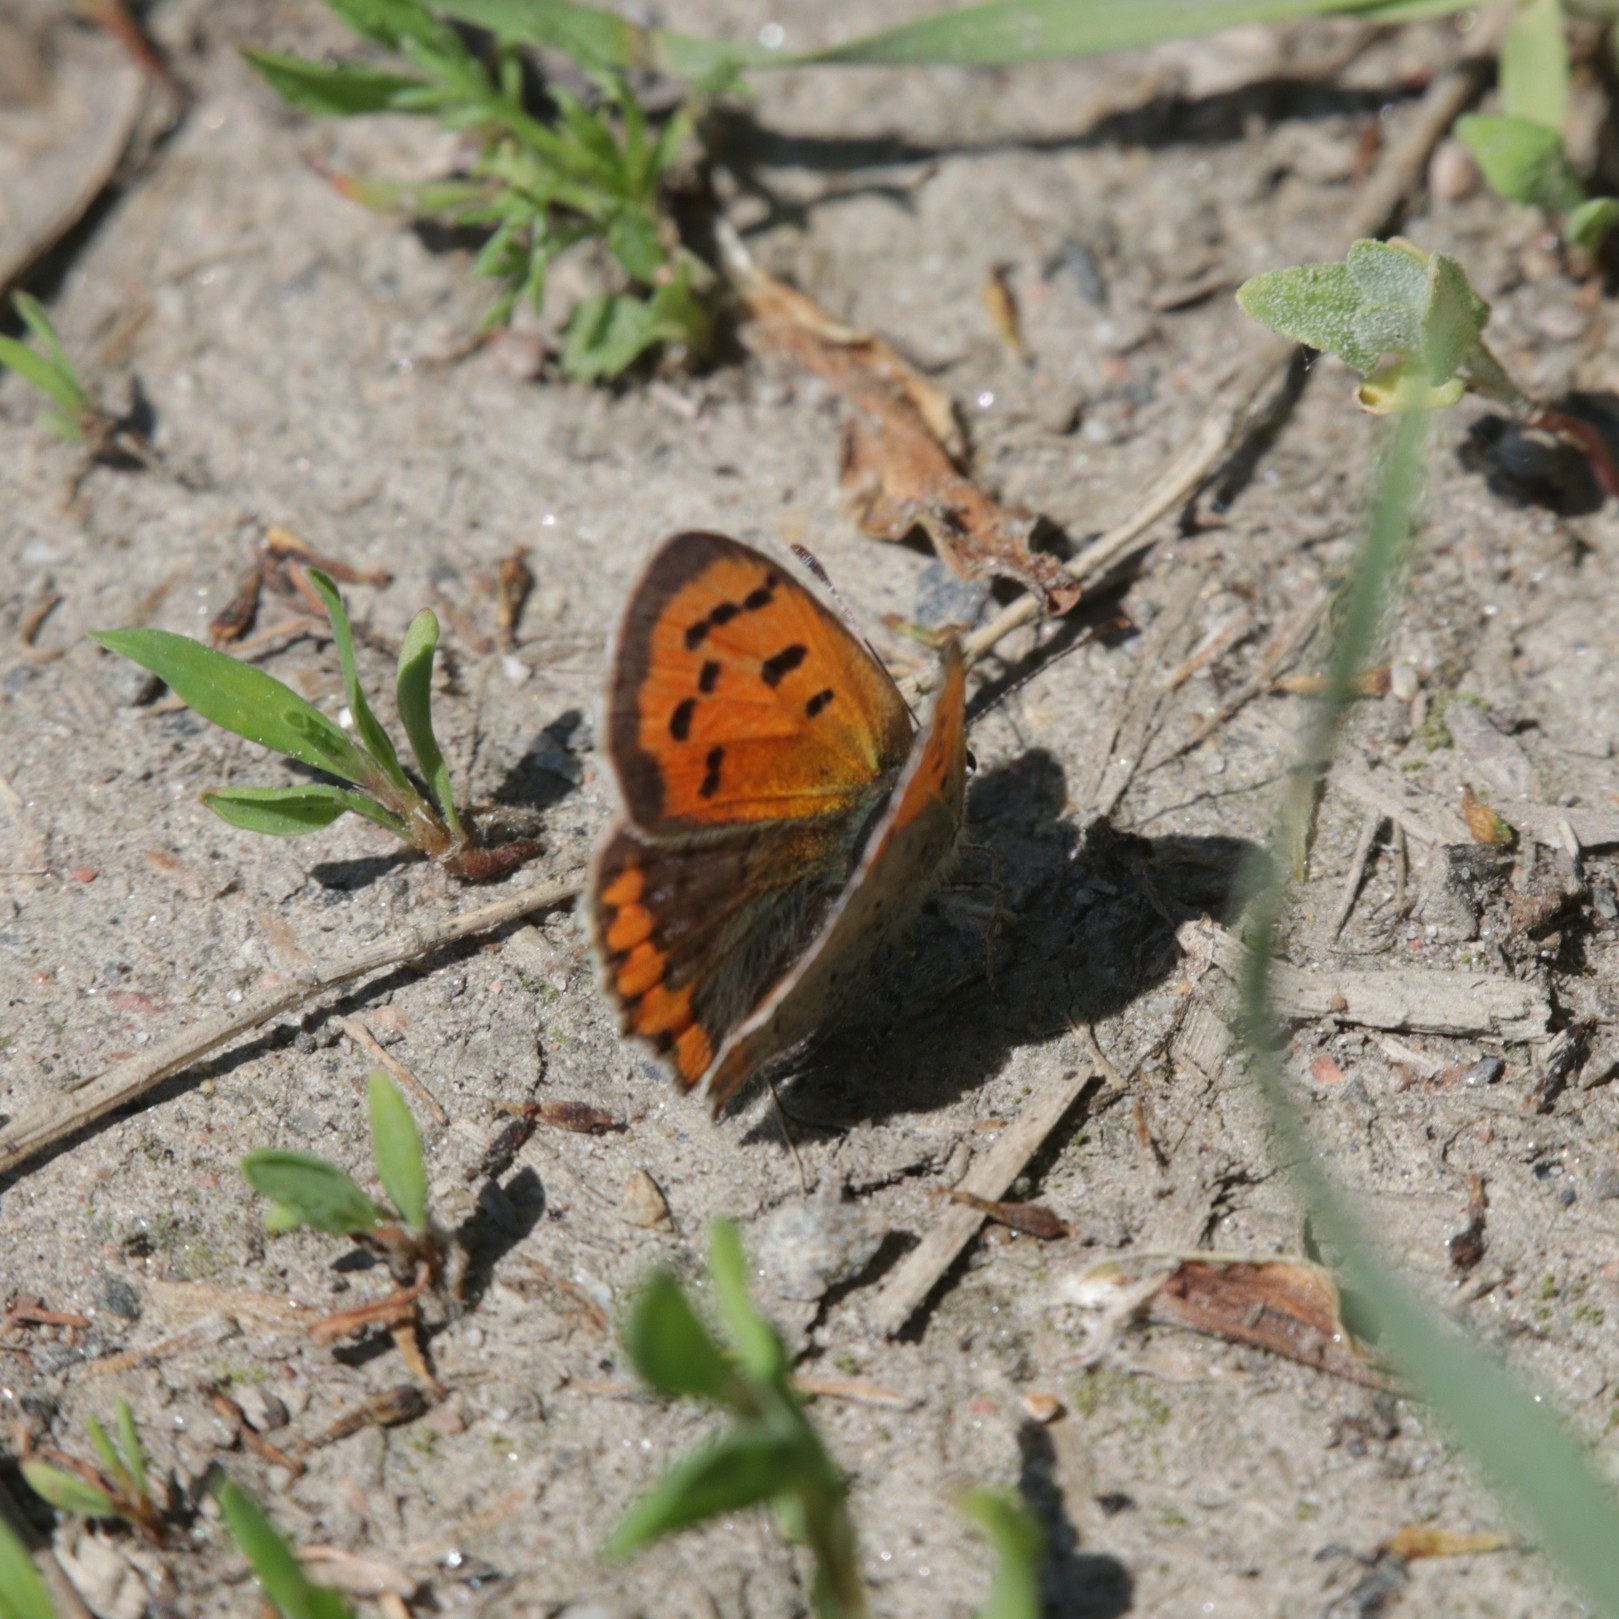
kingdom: Animalia
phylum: Arthropoda
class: Insecta
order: Lepidoptera
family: Lycaenidae
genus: Lycaena
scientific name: Lycaena phlaeas
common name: Small copper
